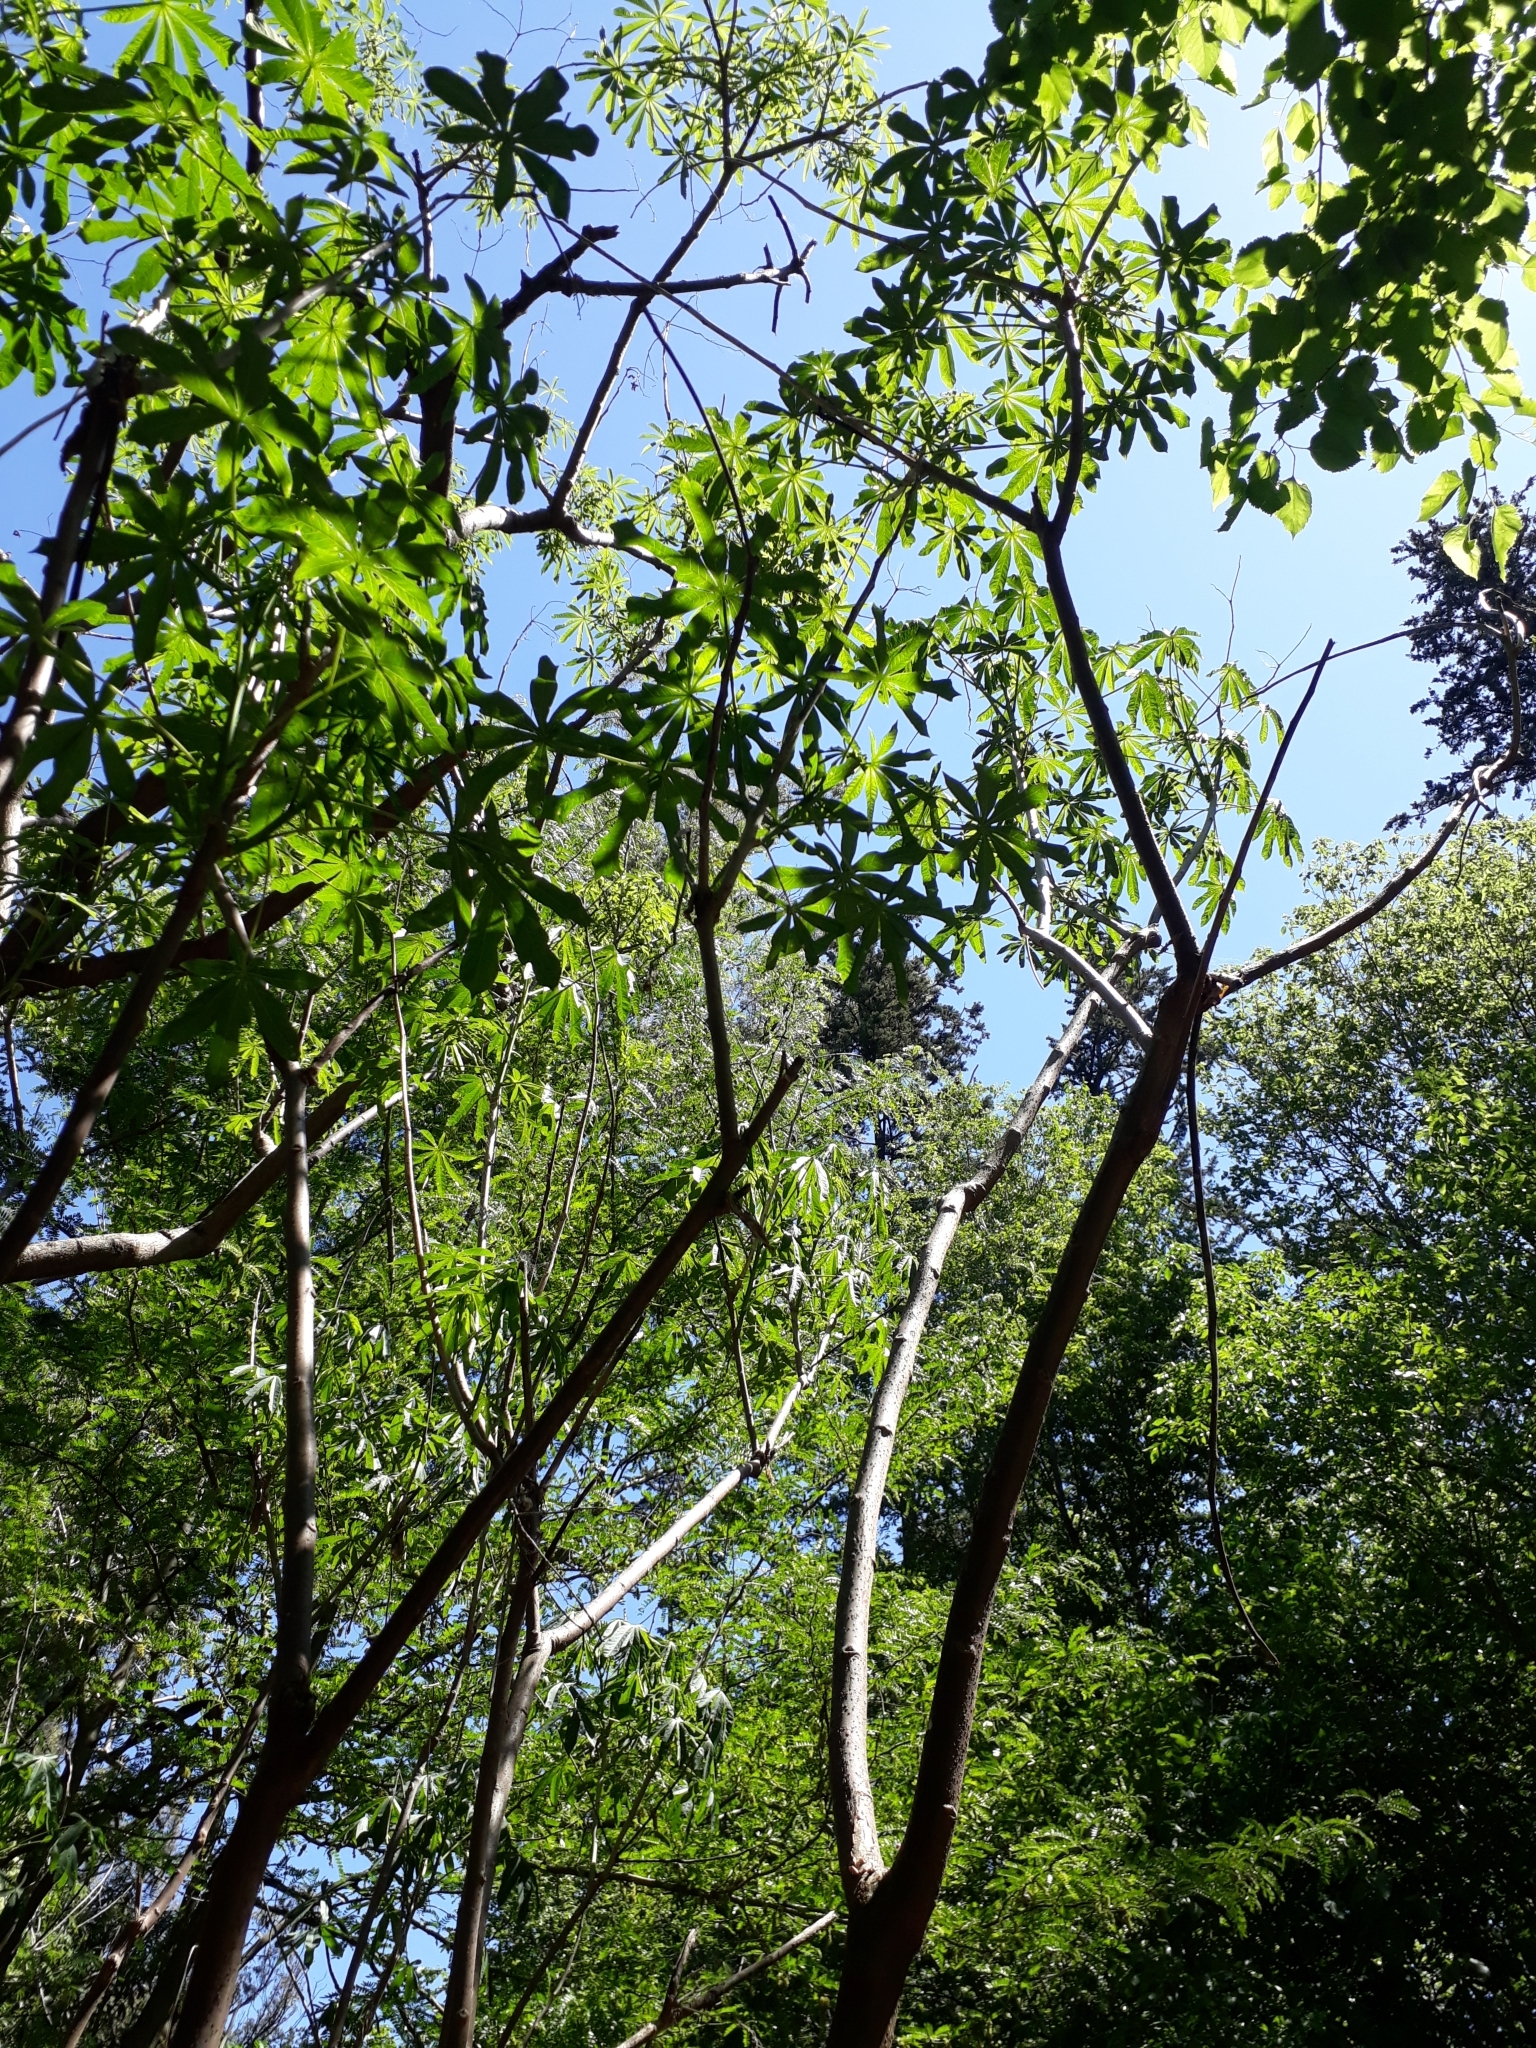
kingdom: Plantae
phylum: Tracheophyta
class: Magnoliopsida
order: Malpighiales
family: Euphorbiaceae
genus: Manihot
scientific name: Manihot grahamii
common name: Graham's manihot
